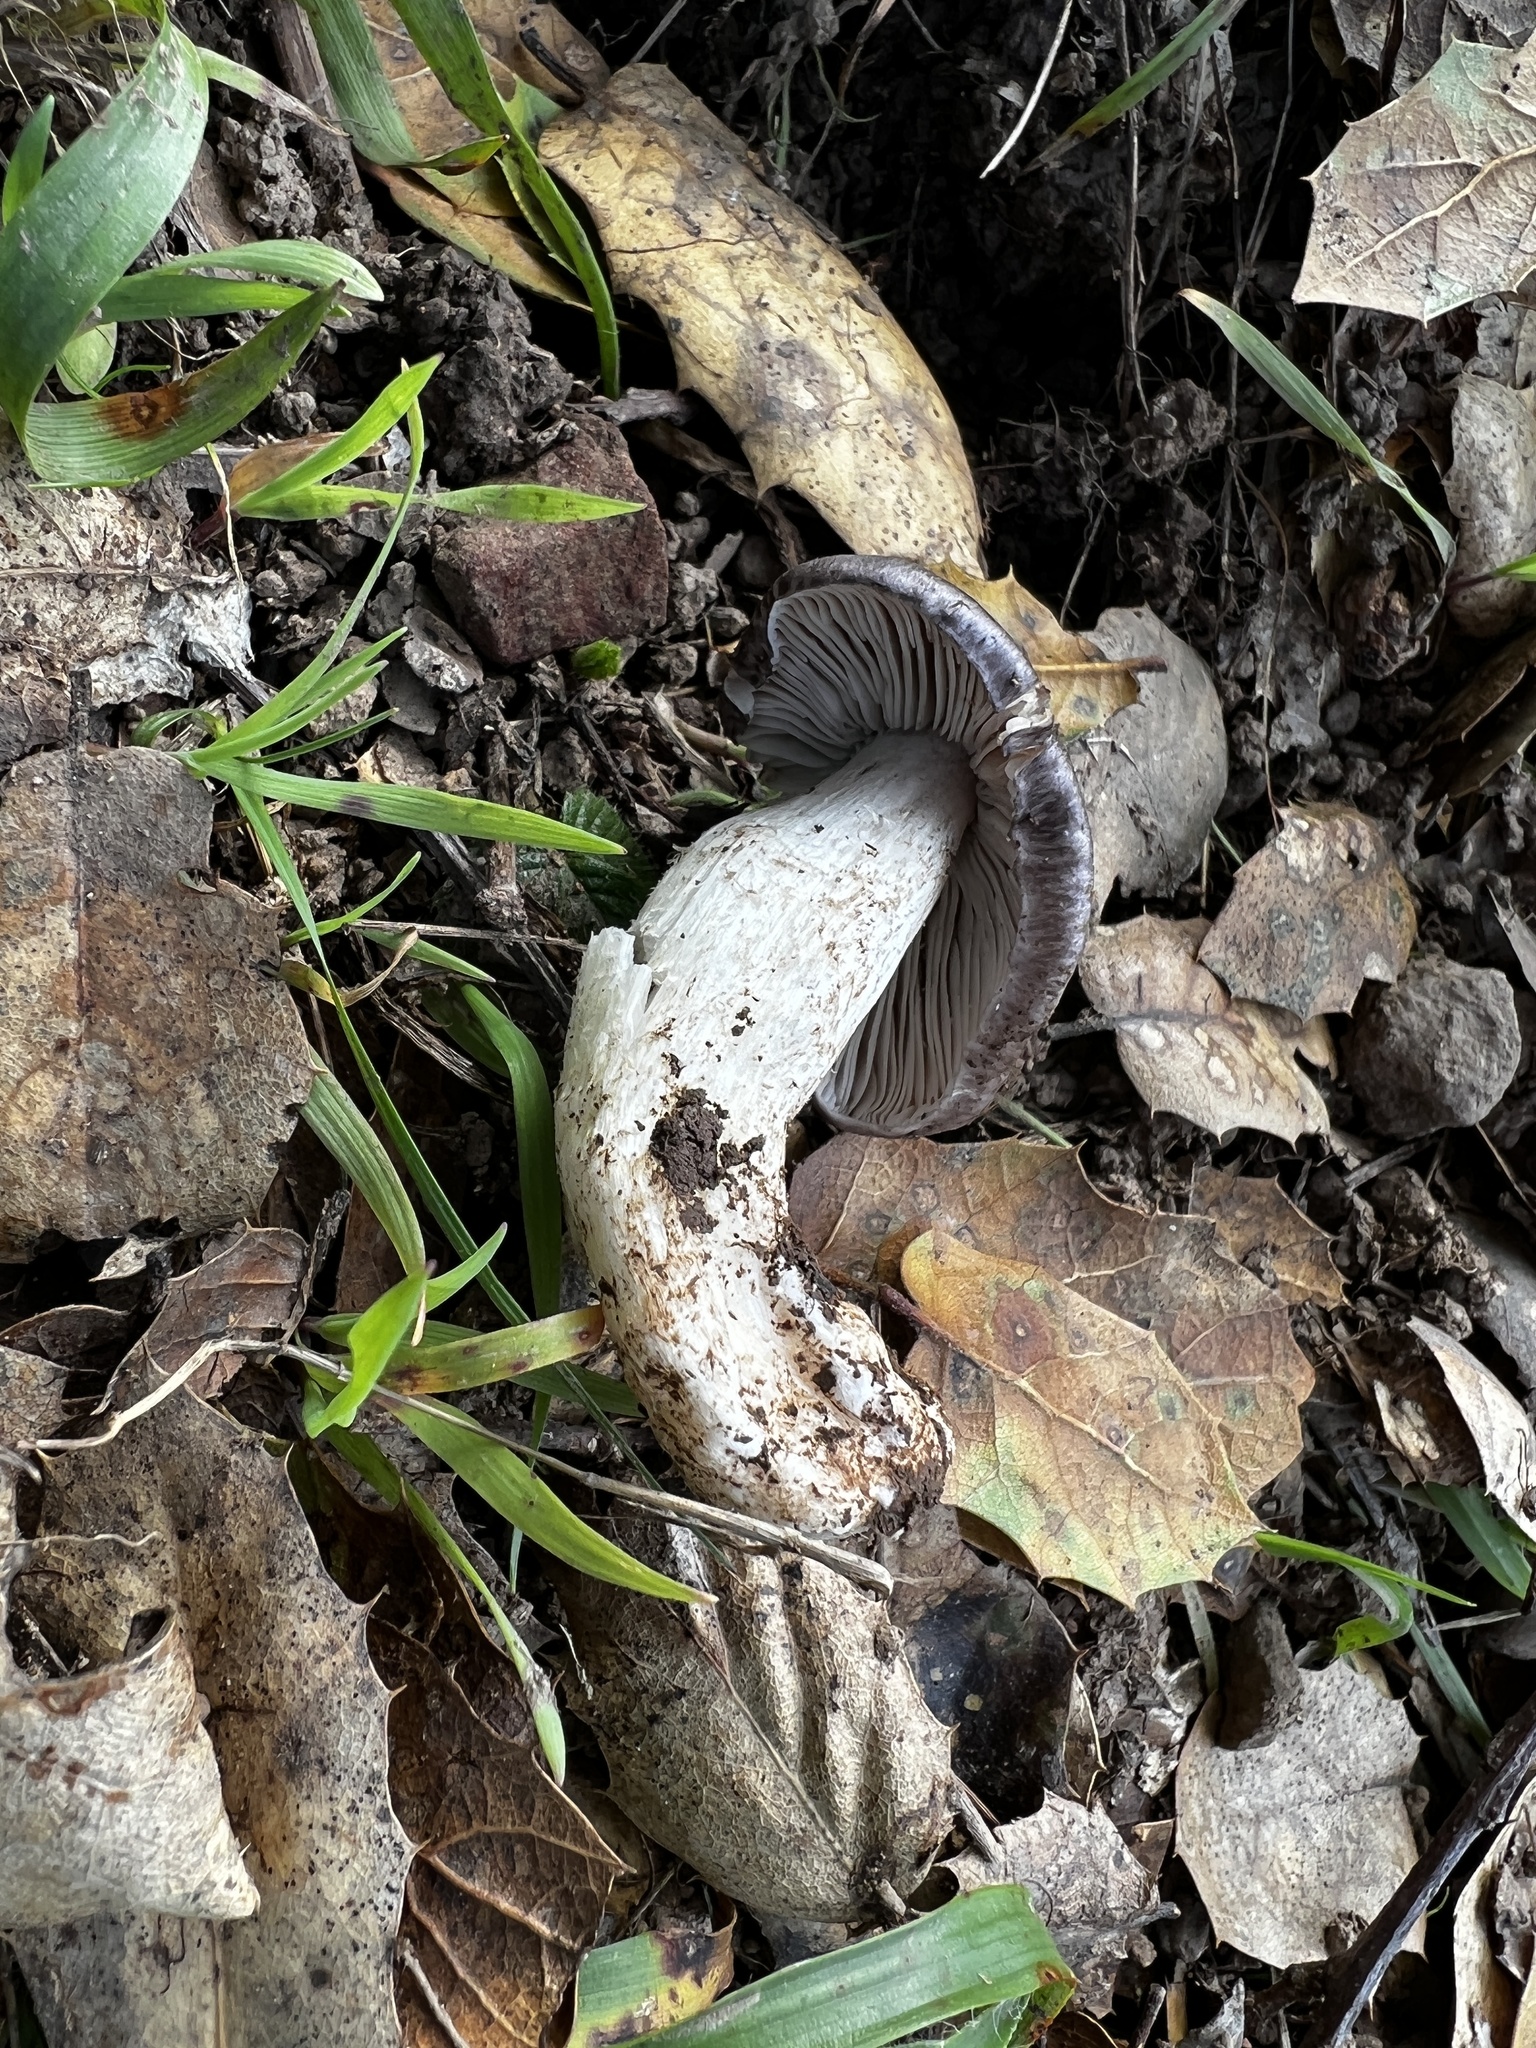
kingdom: Fungi
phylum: Basidiomycota
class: Agaricomycetes
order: Agaricales
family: Tricholomataceae
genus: Tricholoma
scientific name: Tricholoma terreum
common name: Grey knight
